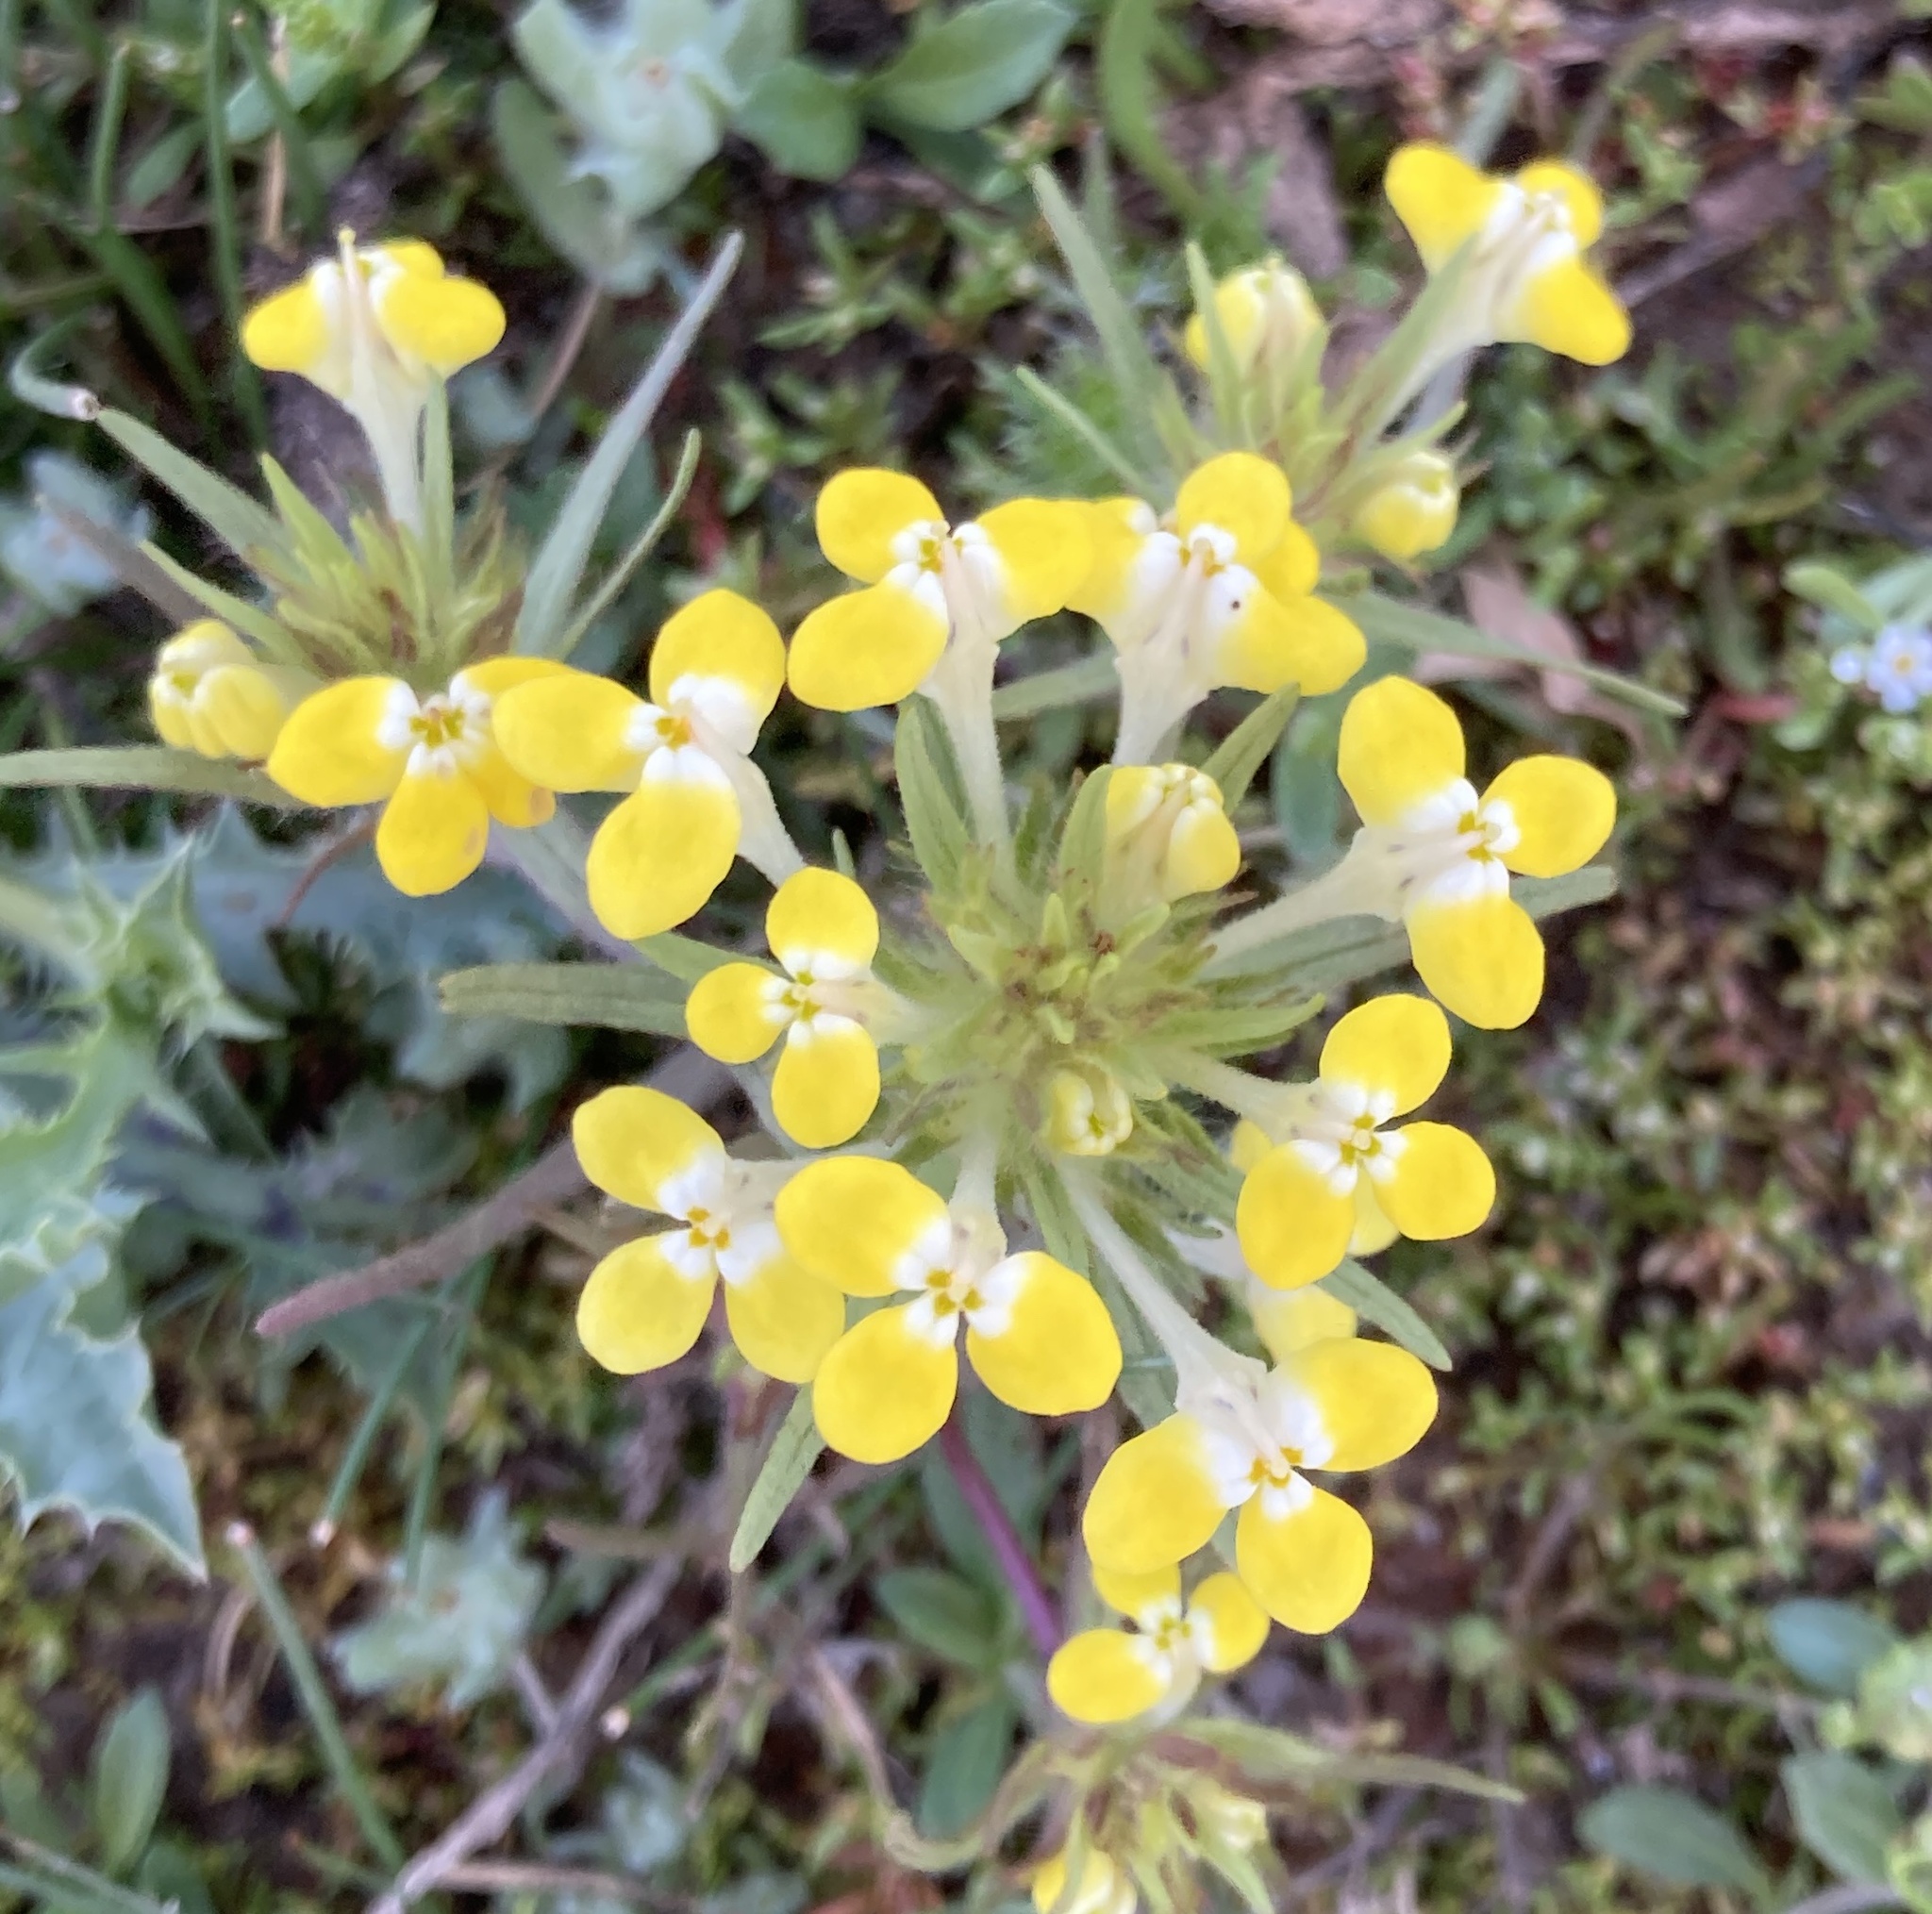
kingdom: Plantae
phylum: Tracheophyta
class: Magnoliopsida
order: Lamiales
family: Orobanchaceae
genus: Castilleja
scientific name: Castilleja campestris
